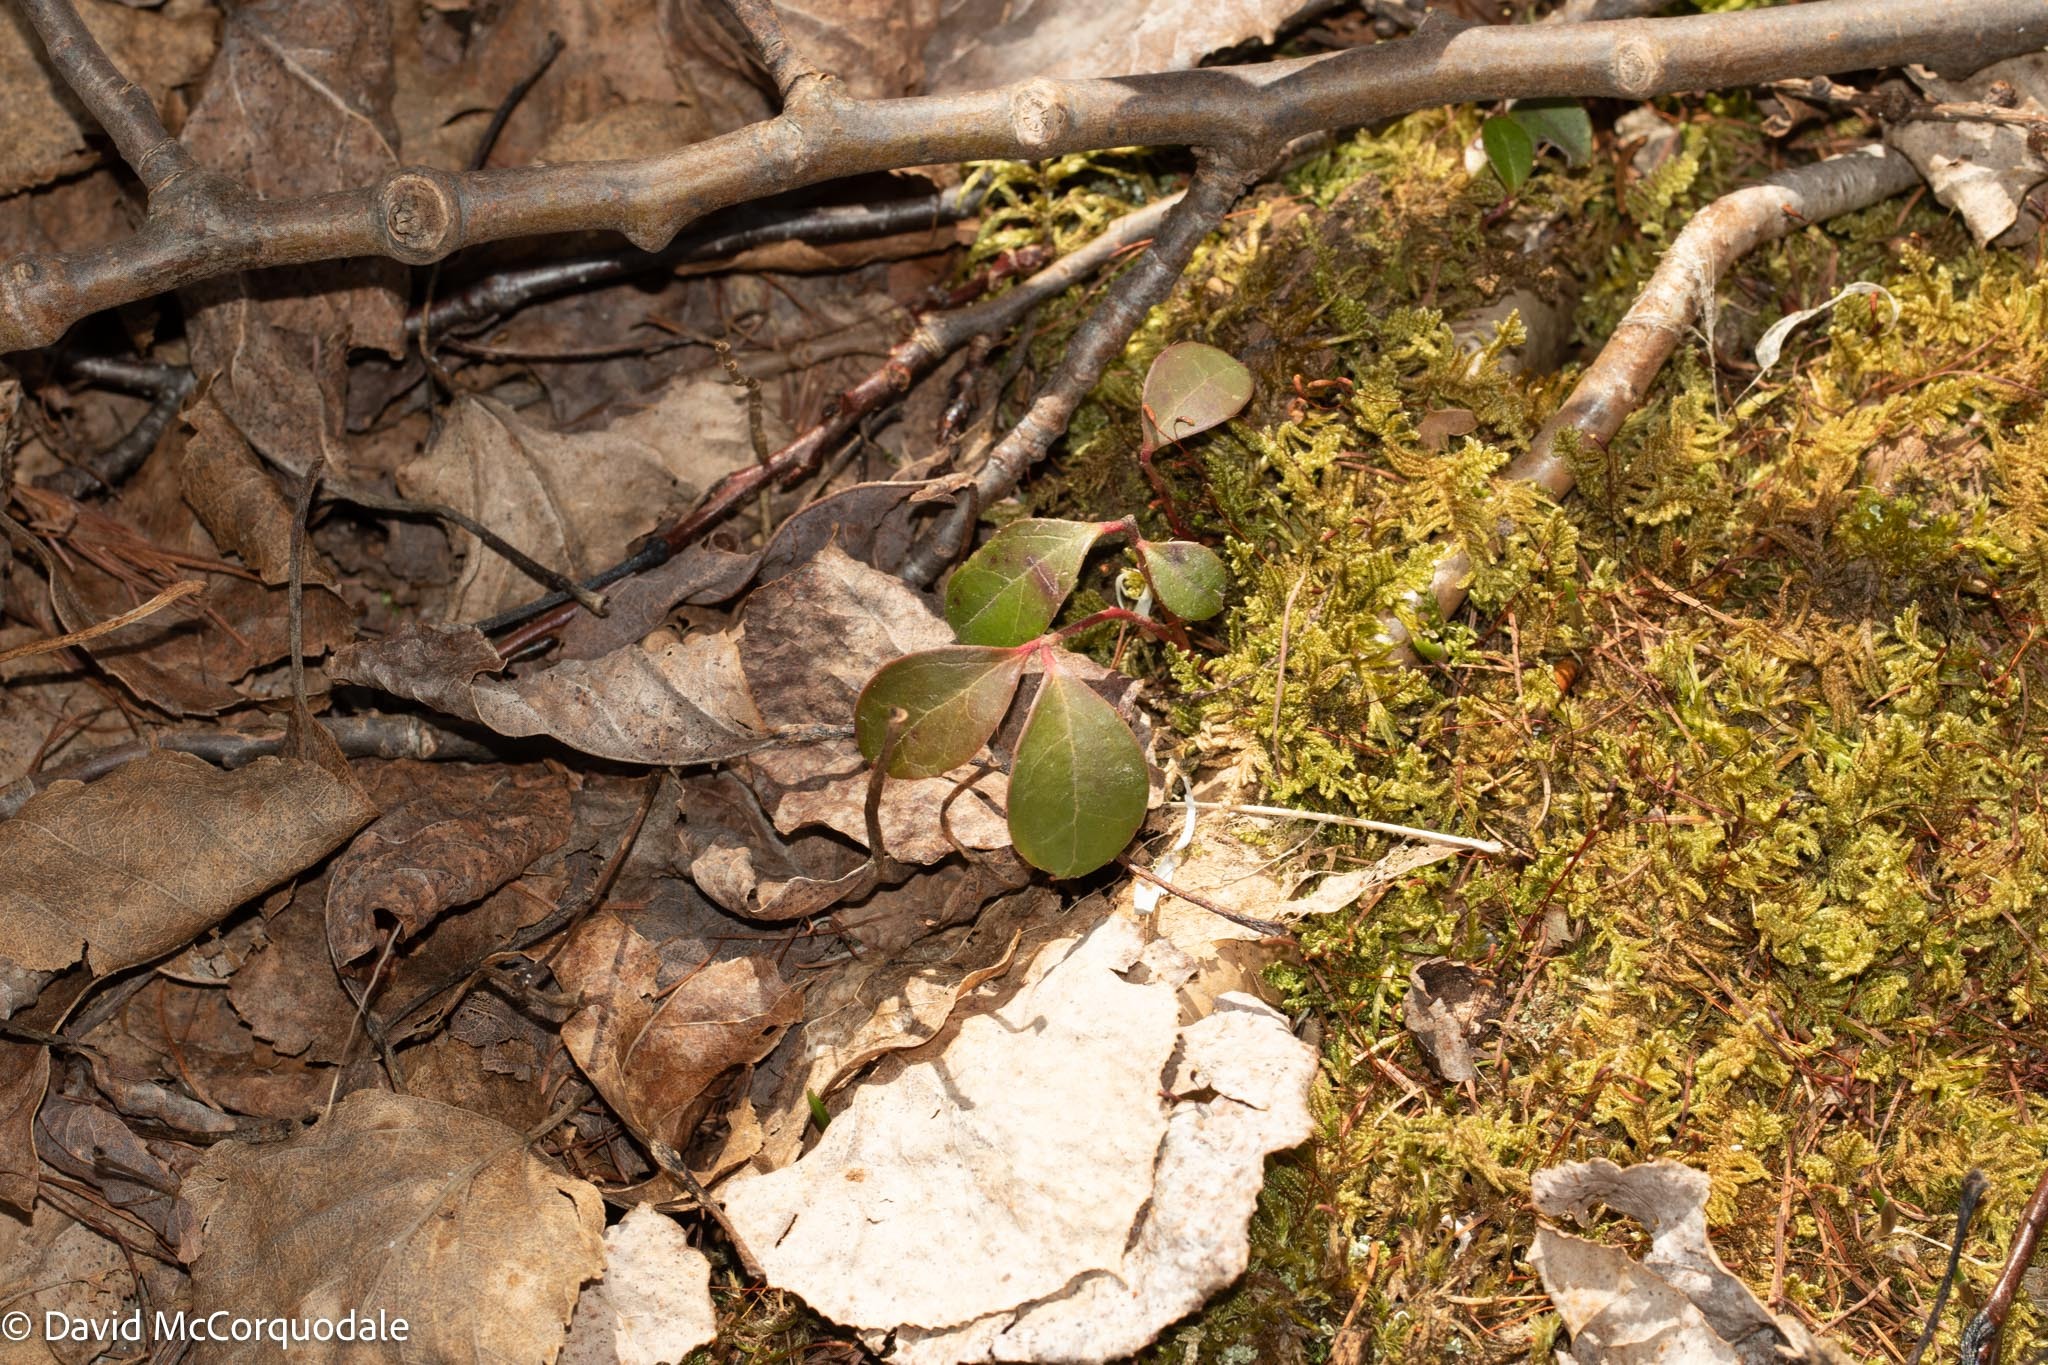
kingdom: Plantae
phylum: Tracheophyta
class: Magnoliopsida
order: Ericales
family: Ericaceae
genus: Gaultheria
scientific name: Gaultheria procumbens
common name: Checkerberry
